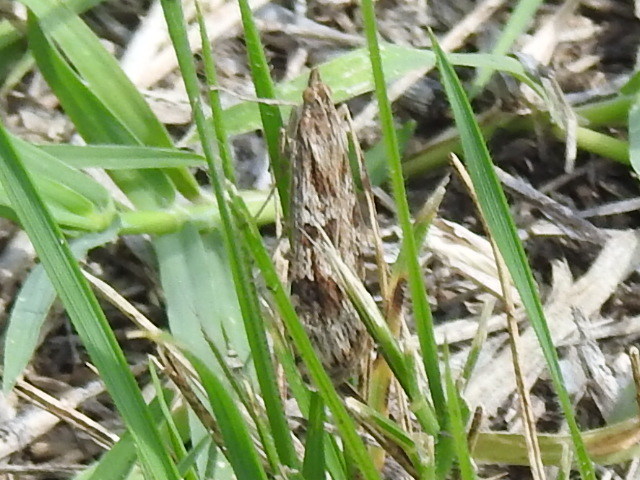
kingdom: Animalia
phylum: Arthropoda
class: Insecta
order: Lepidoptera
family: Crambidae
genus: Nomophila
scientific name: Nomophila nearctica
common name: American rush veneer
